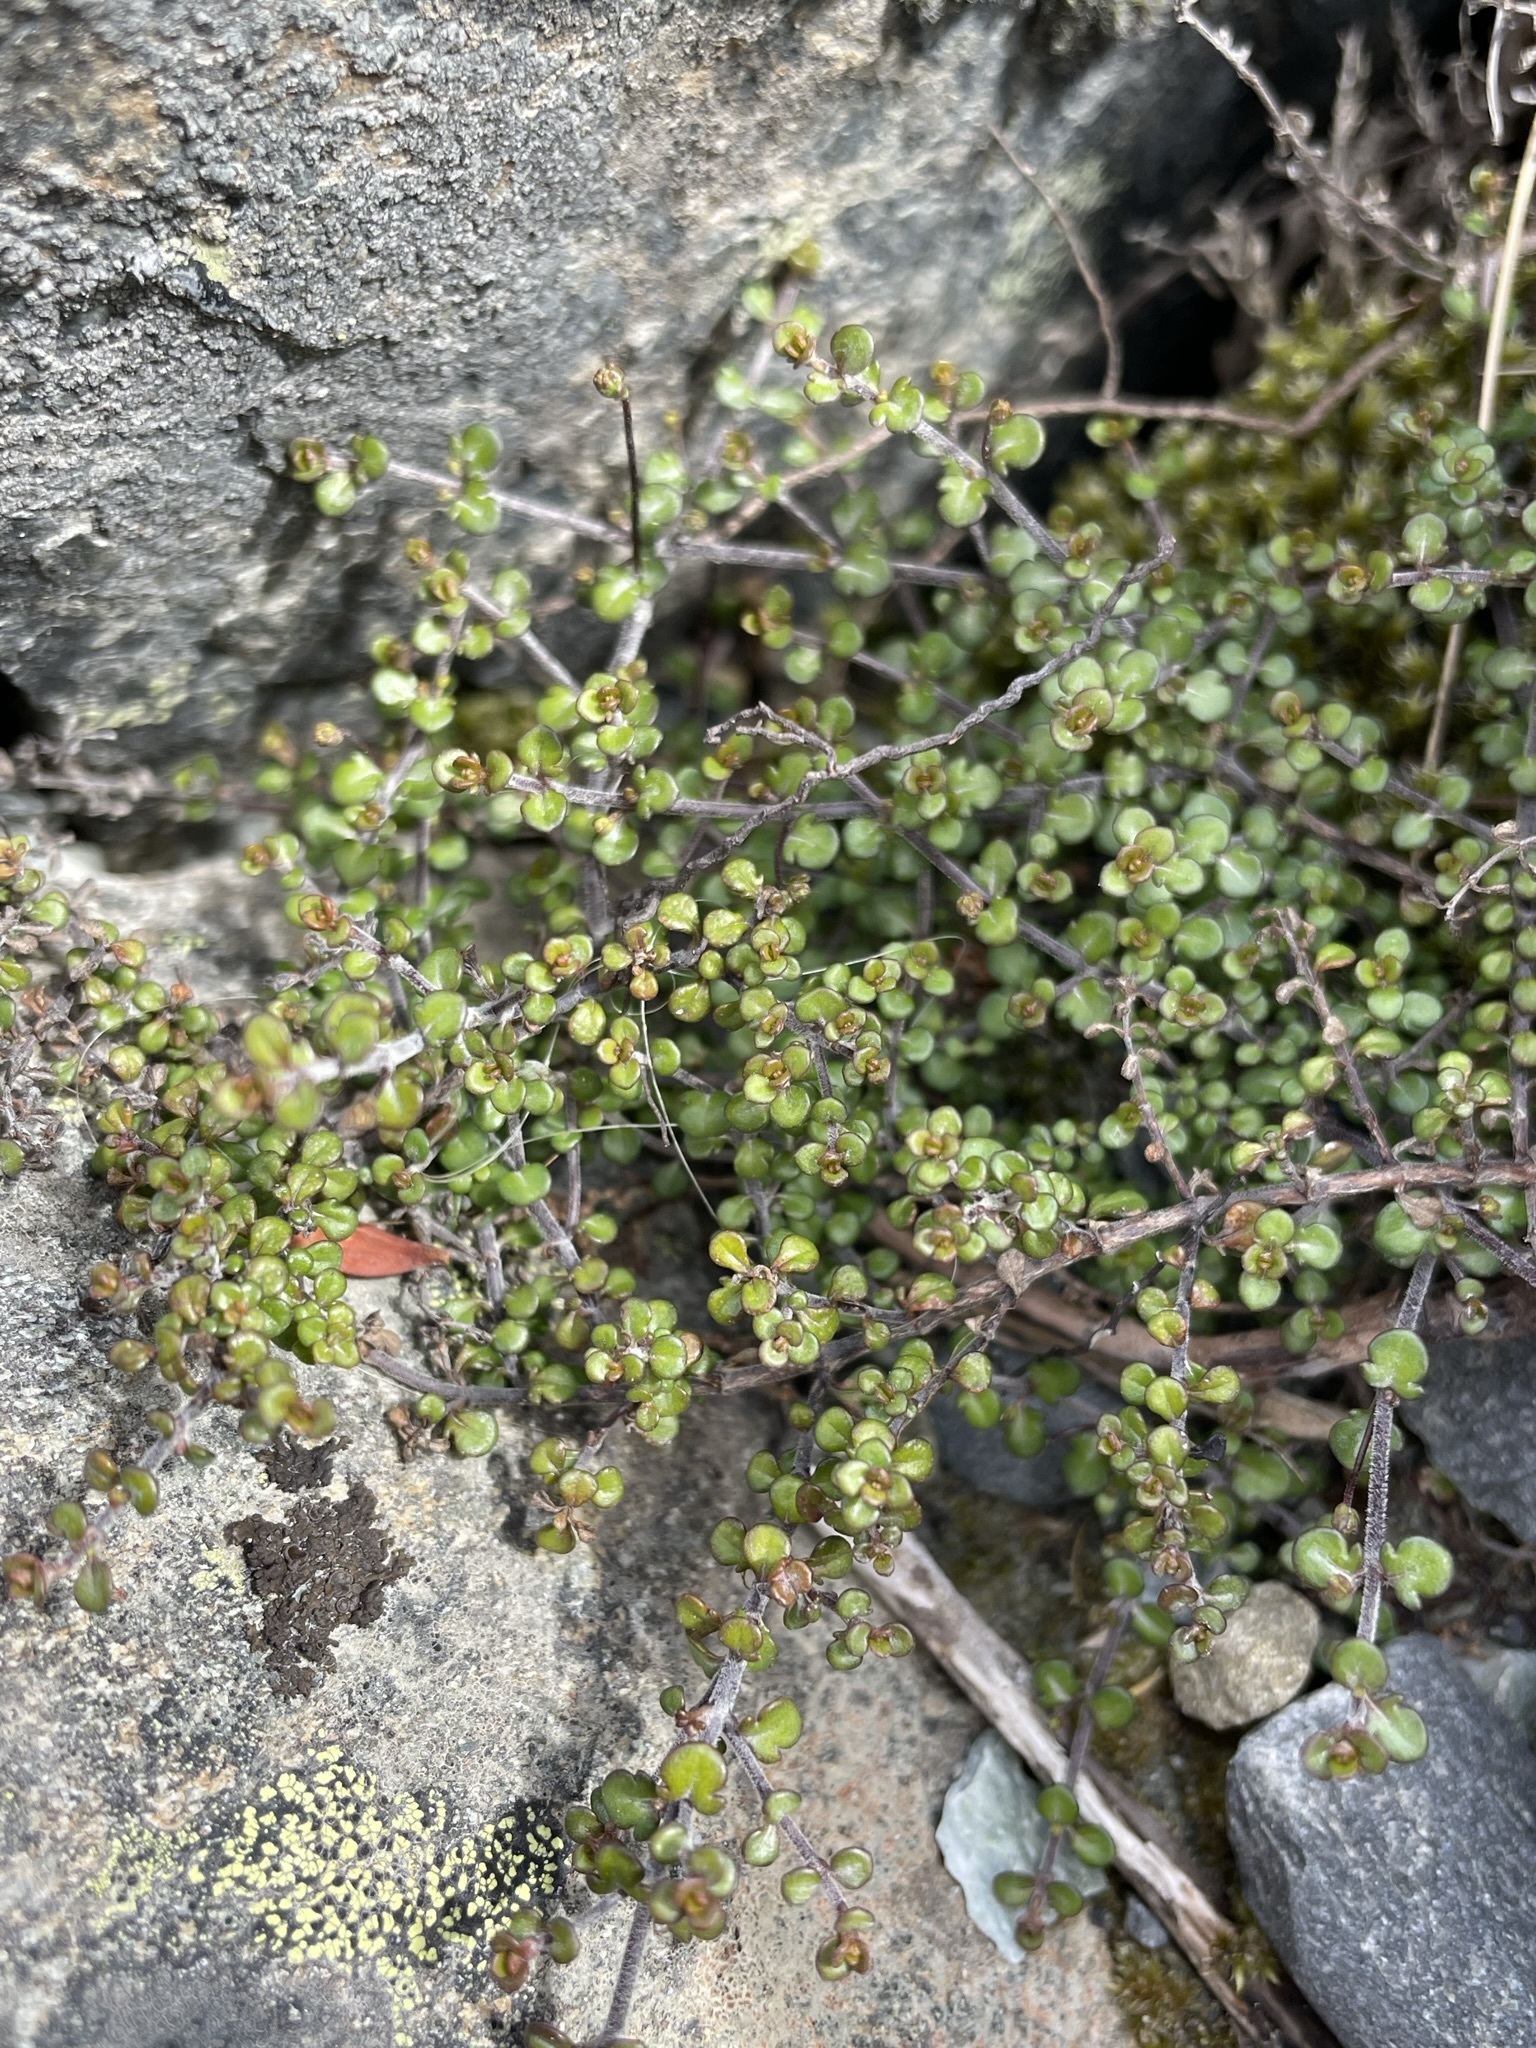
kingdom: Plantae
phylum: Tracheophyta
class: Magnoliopsida
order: Lamiales
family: Plantaginaceae
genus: Veronica
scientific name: Veronica decora
